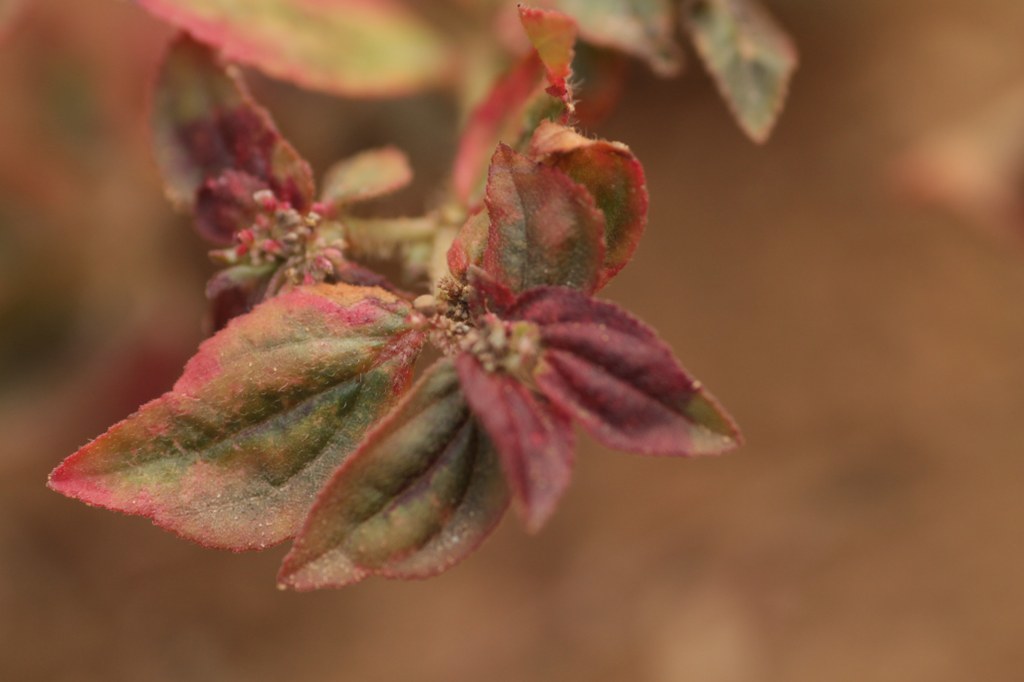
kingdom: Plantae
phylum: Tracheophyta
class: Magnoliopsida
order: Malpighiales
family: Euphorbiaceae
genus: Euphorbia
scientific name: Euphorbia hirta
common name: Pillpod sandmat
